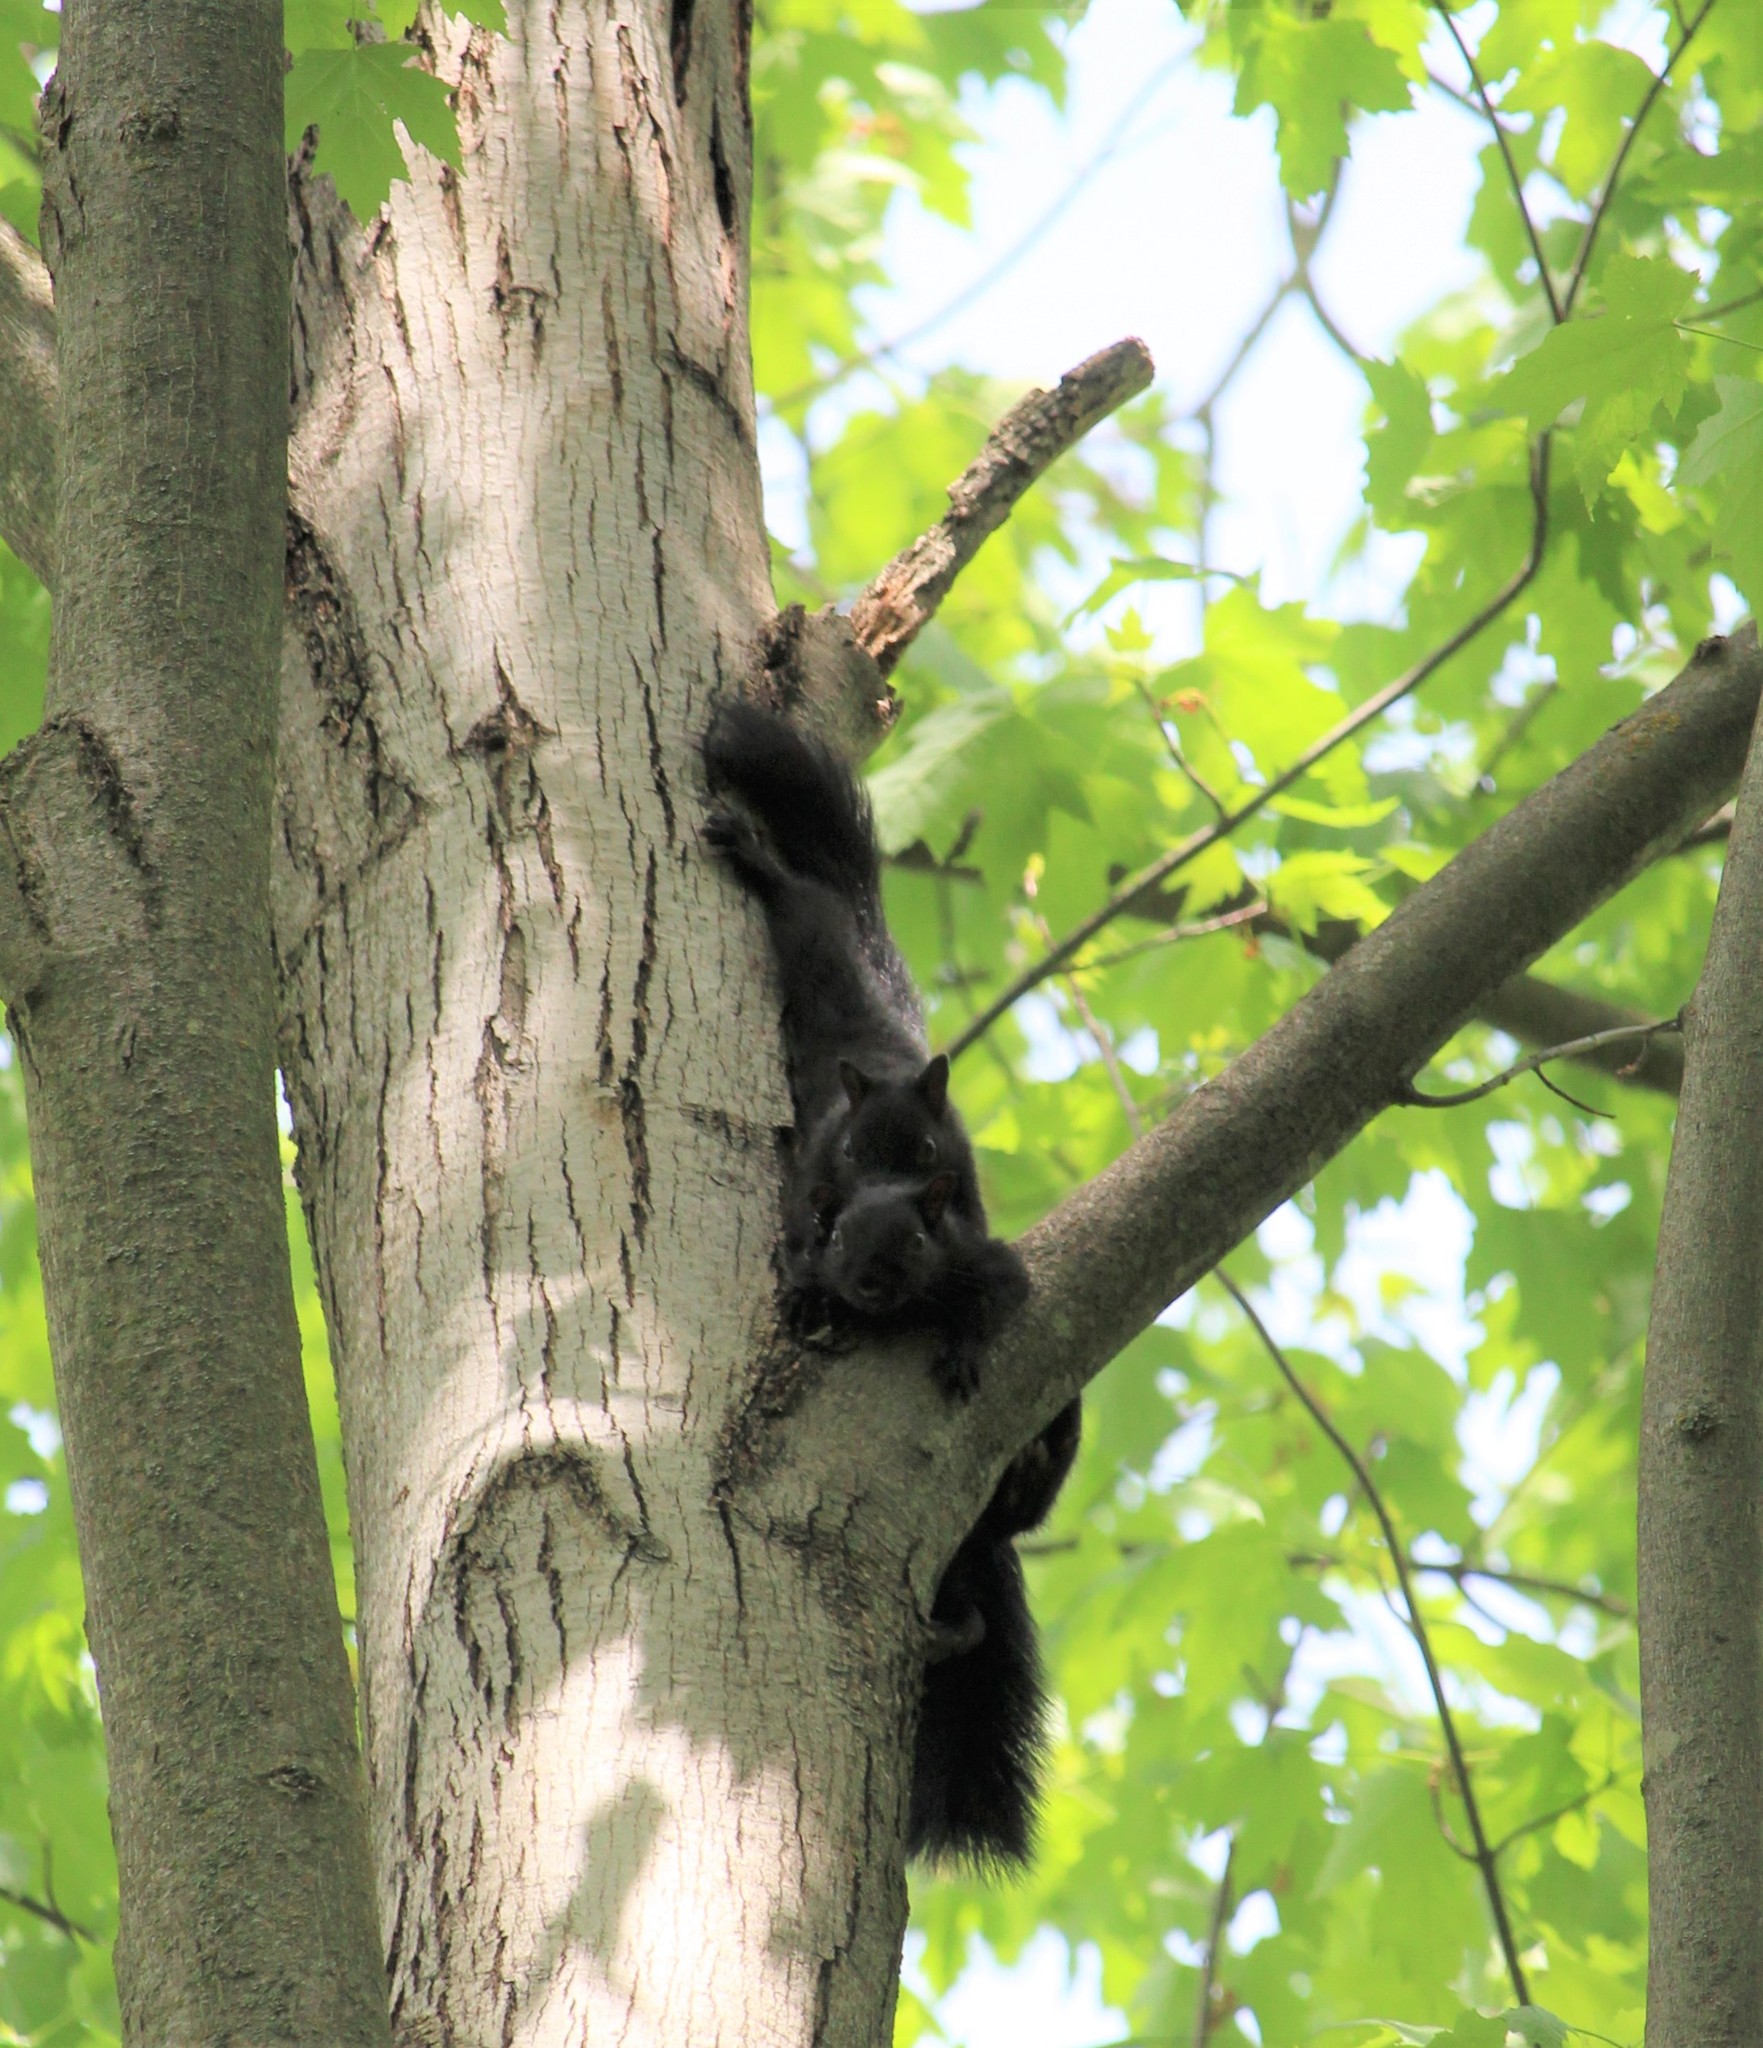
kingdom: Animalia
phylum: Chordata
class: Mammalia
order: Rodentia
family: Sciuridae
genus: Sciurus
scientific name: Sciurus carolinensis
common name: Eastern gray squirrel
